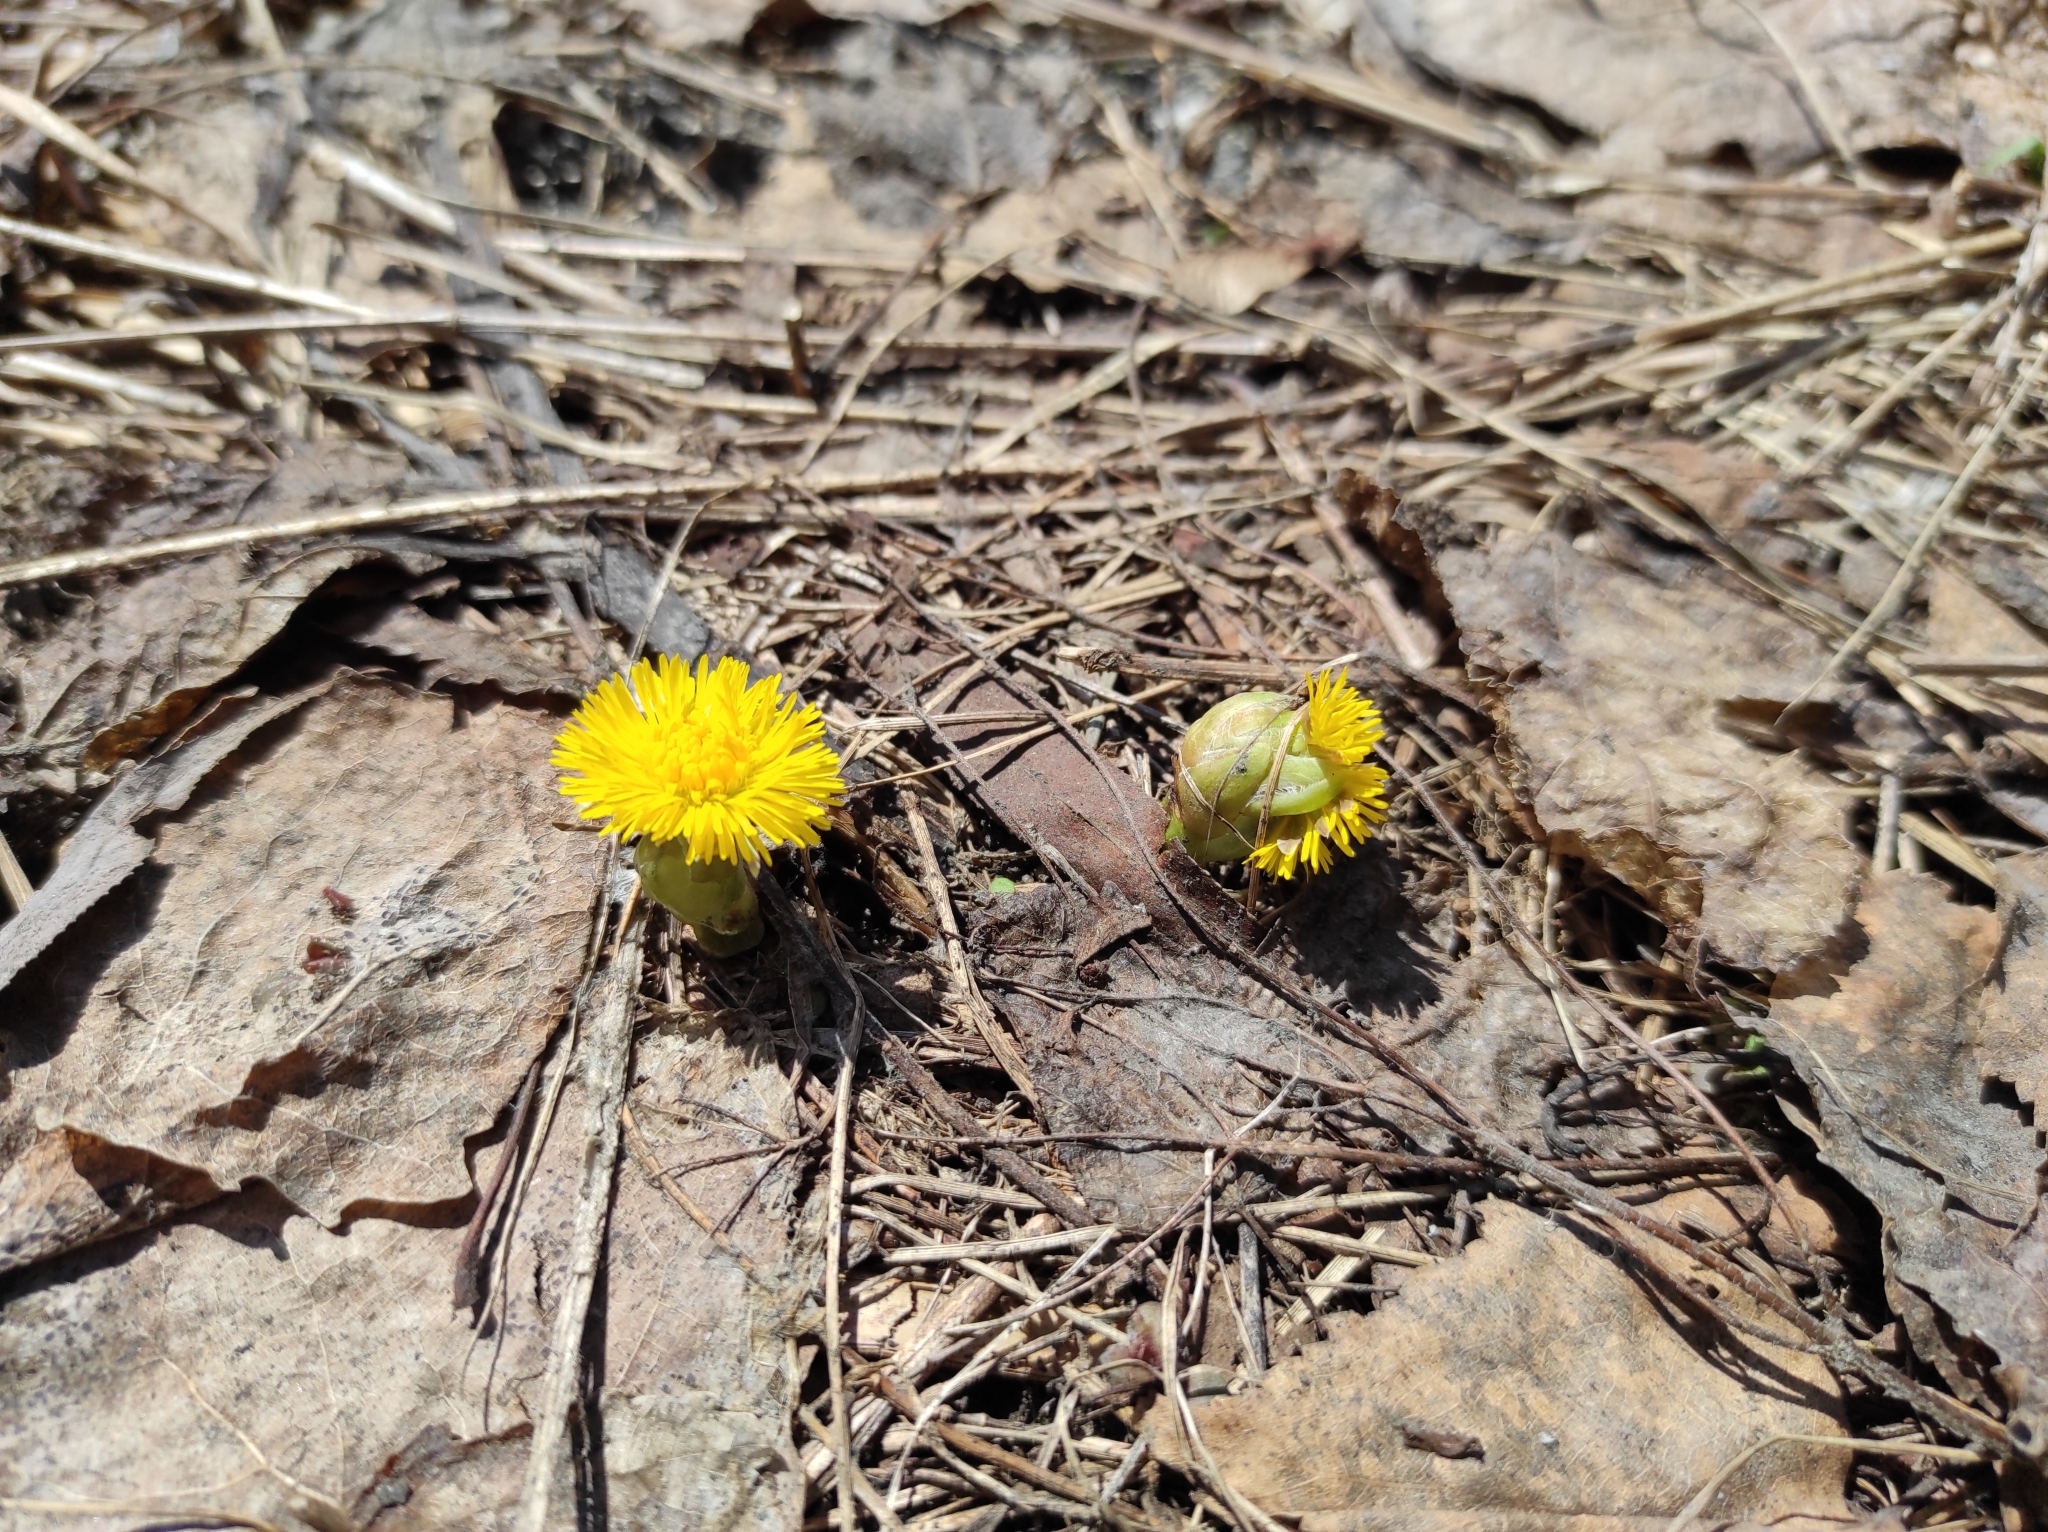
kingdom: Plantae
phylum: Tracheophyta
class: Magnoliopsida
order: Asterales
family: Asteraceae
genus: Tussilago
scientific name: Tussilago farfara
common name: Coltsfoot
